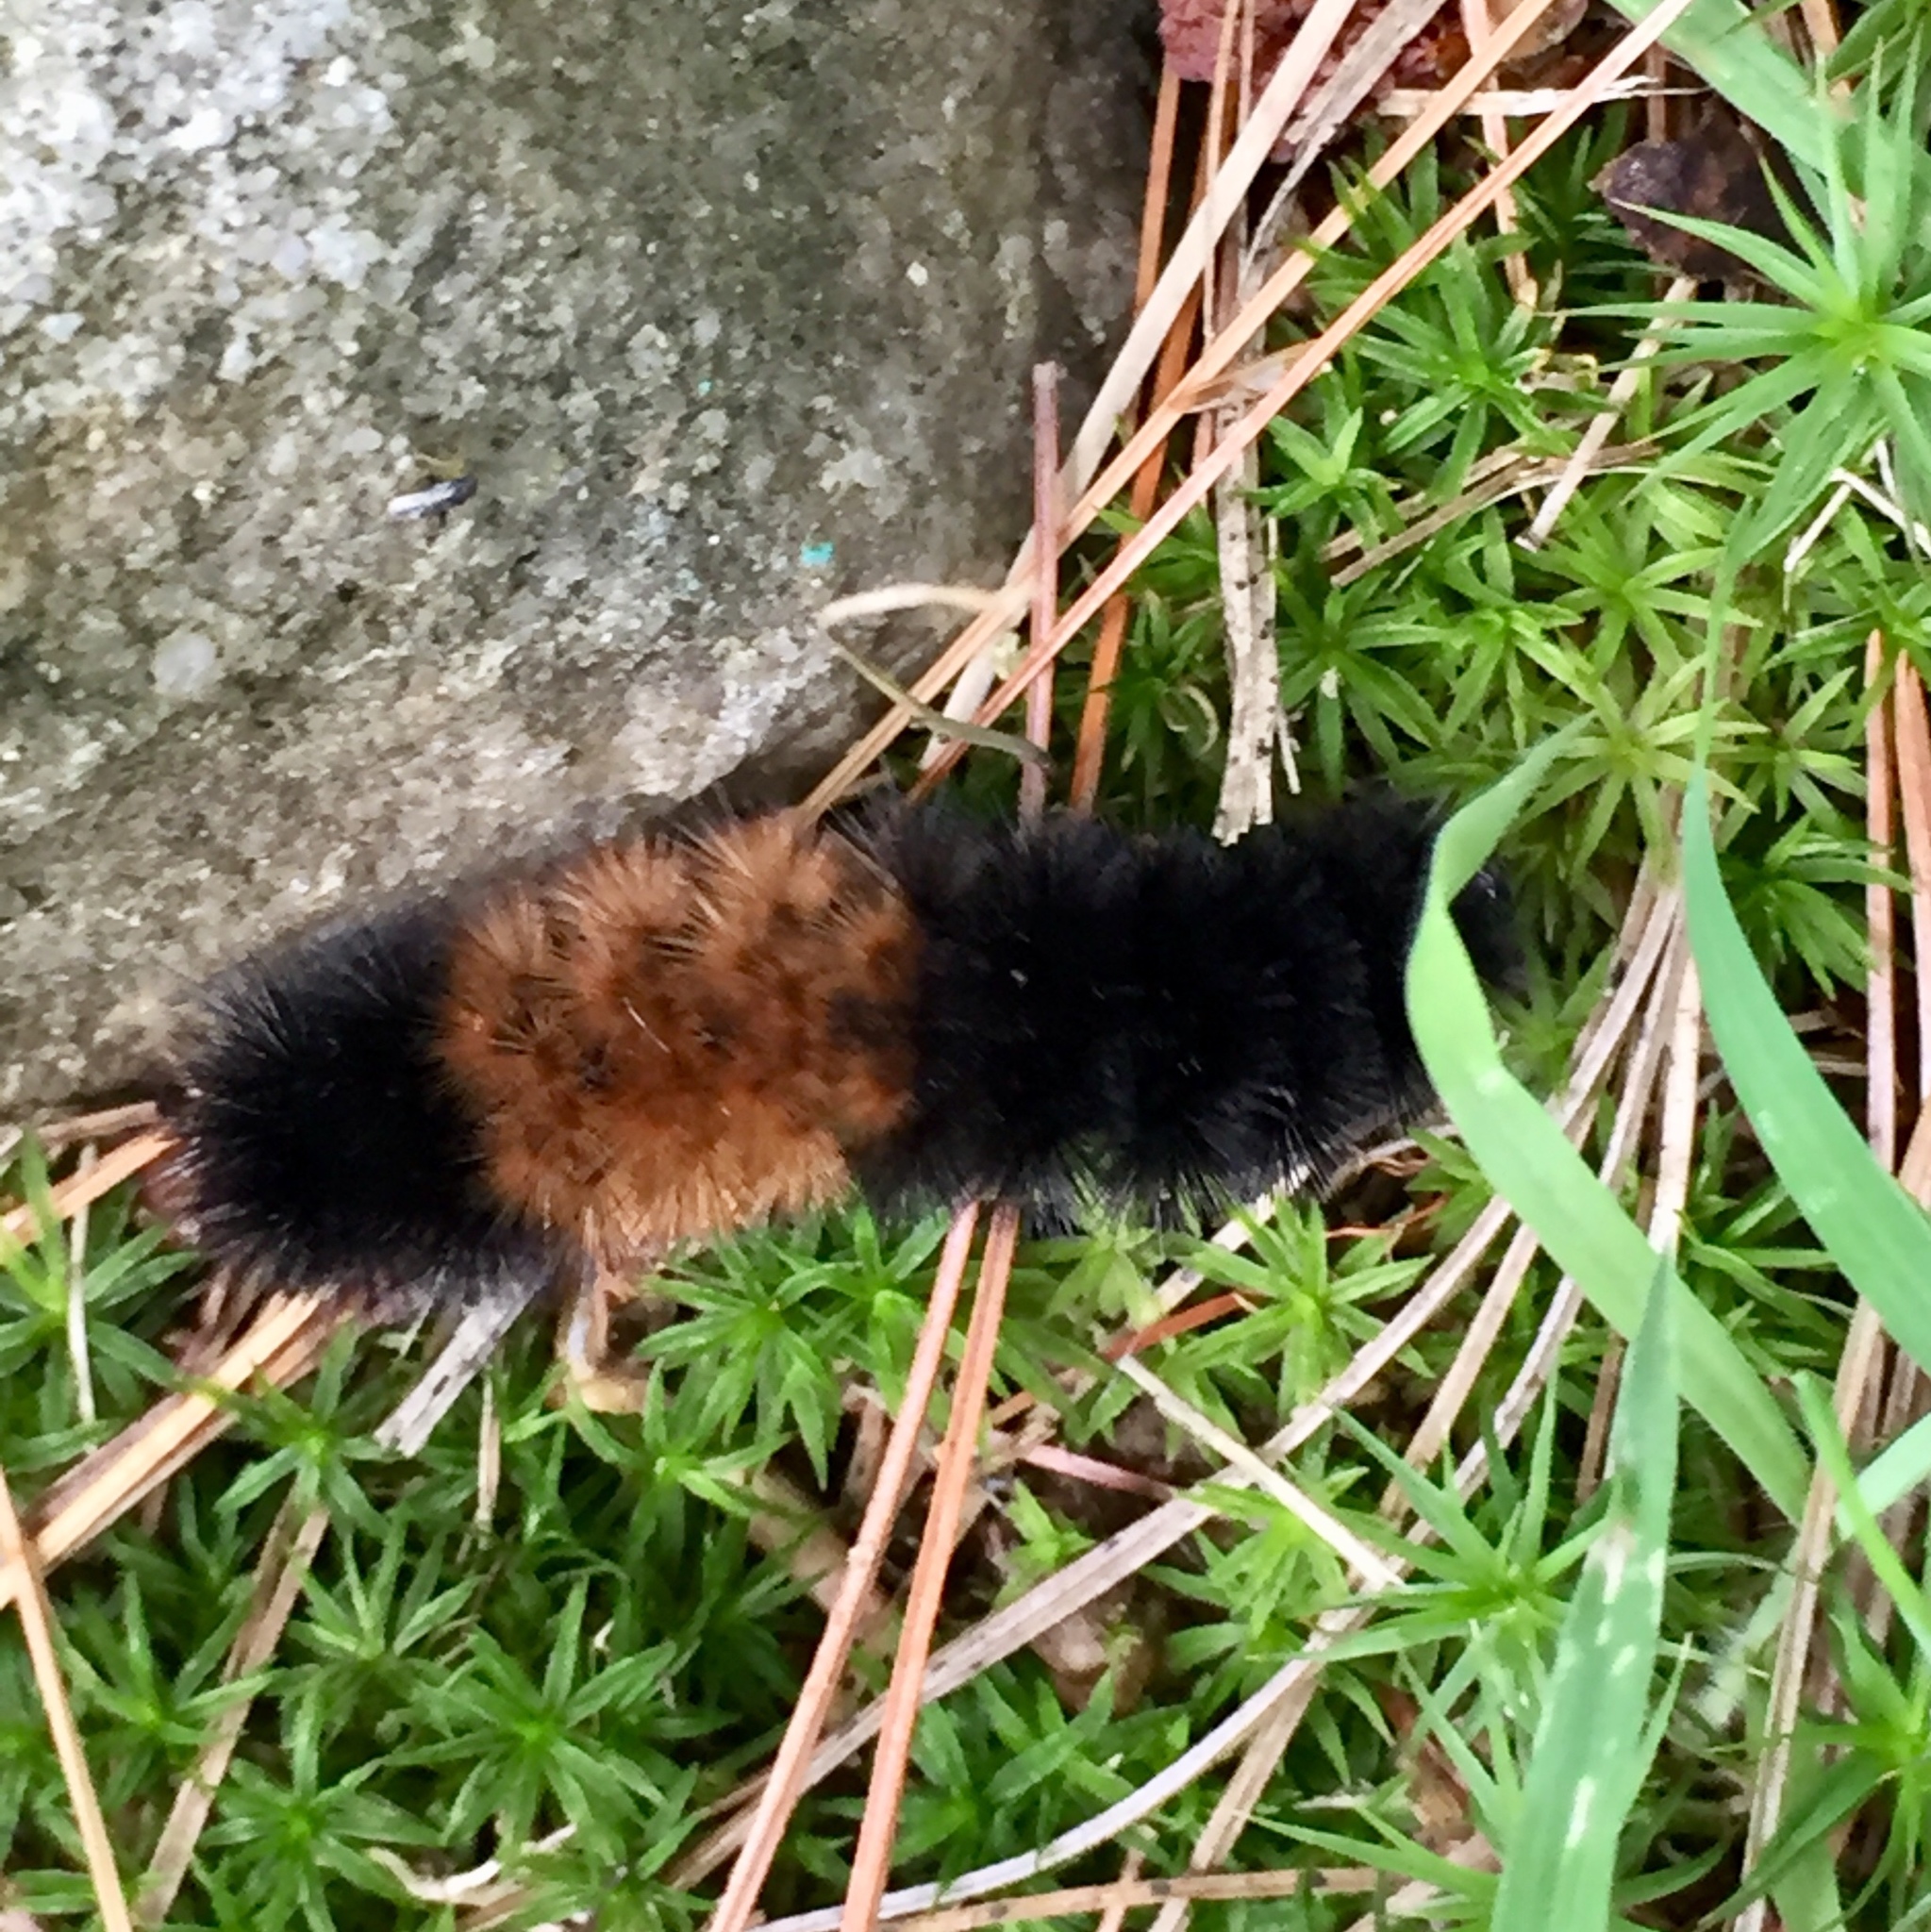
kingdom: Animalia
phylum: Arthropoda
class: Insecta
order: Lepidoptera
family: Erebidae
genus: Pyrrharctia
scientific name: Pyrrharctia isabella
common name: Isabella tiger moth
